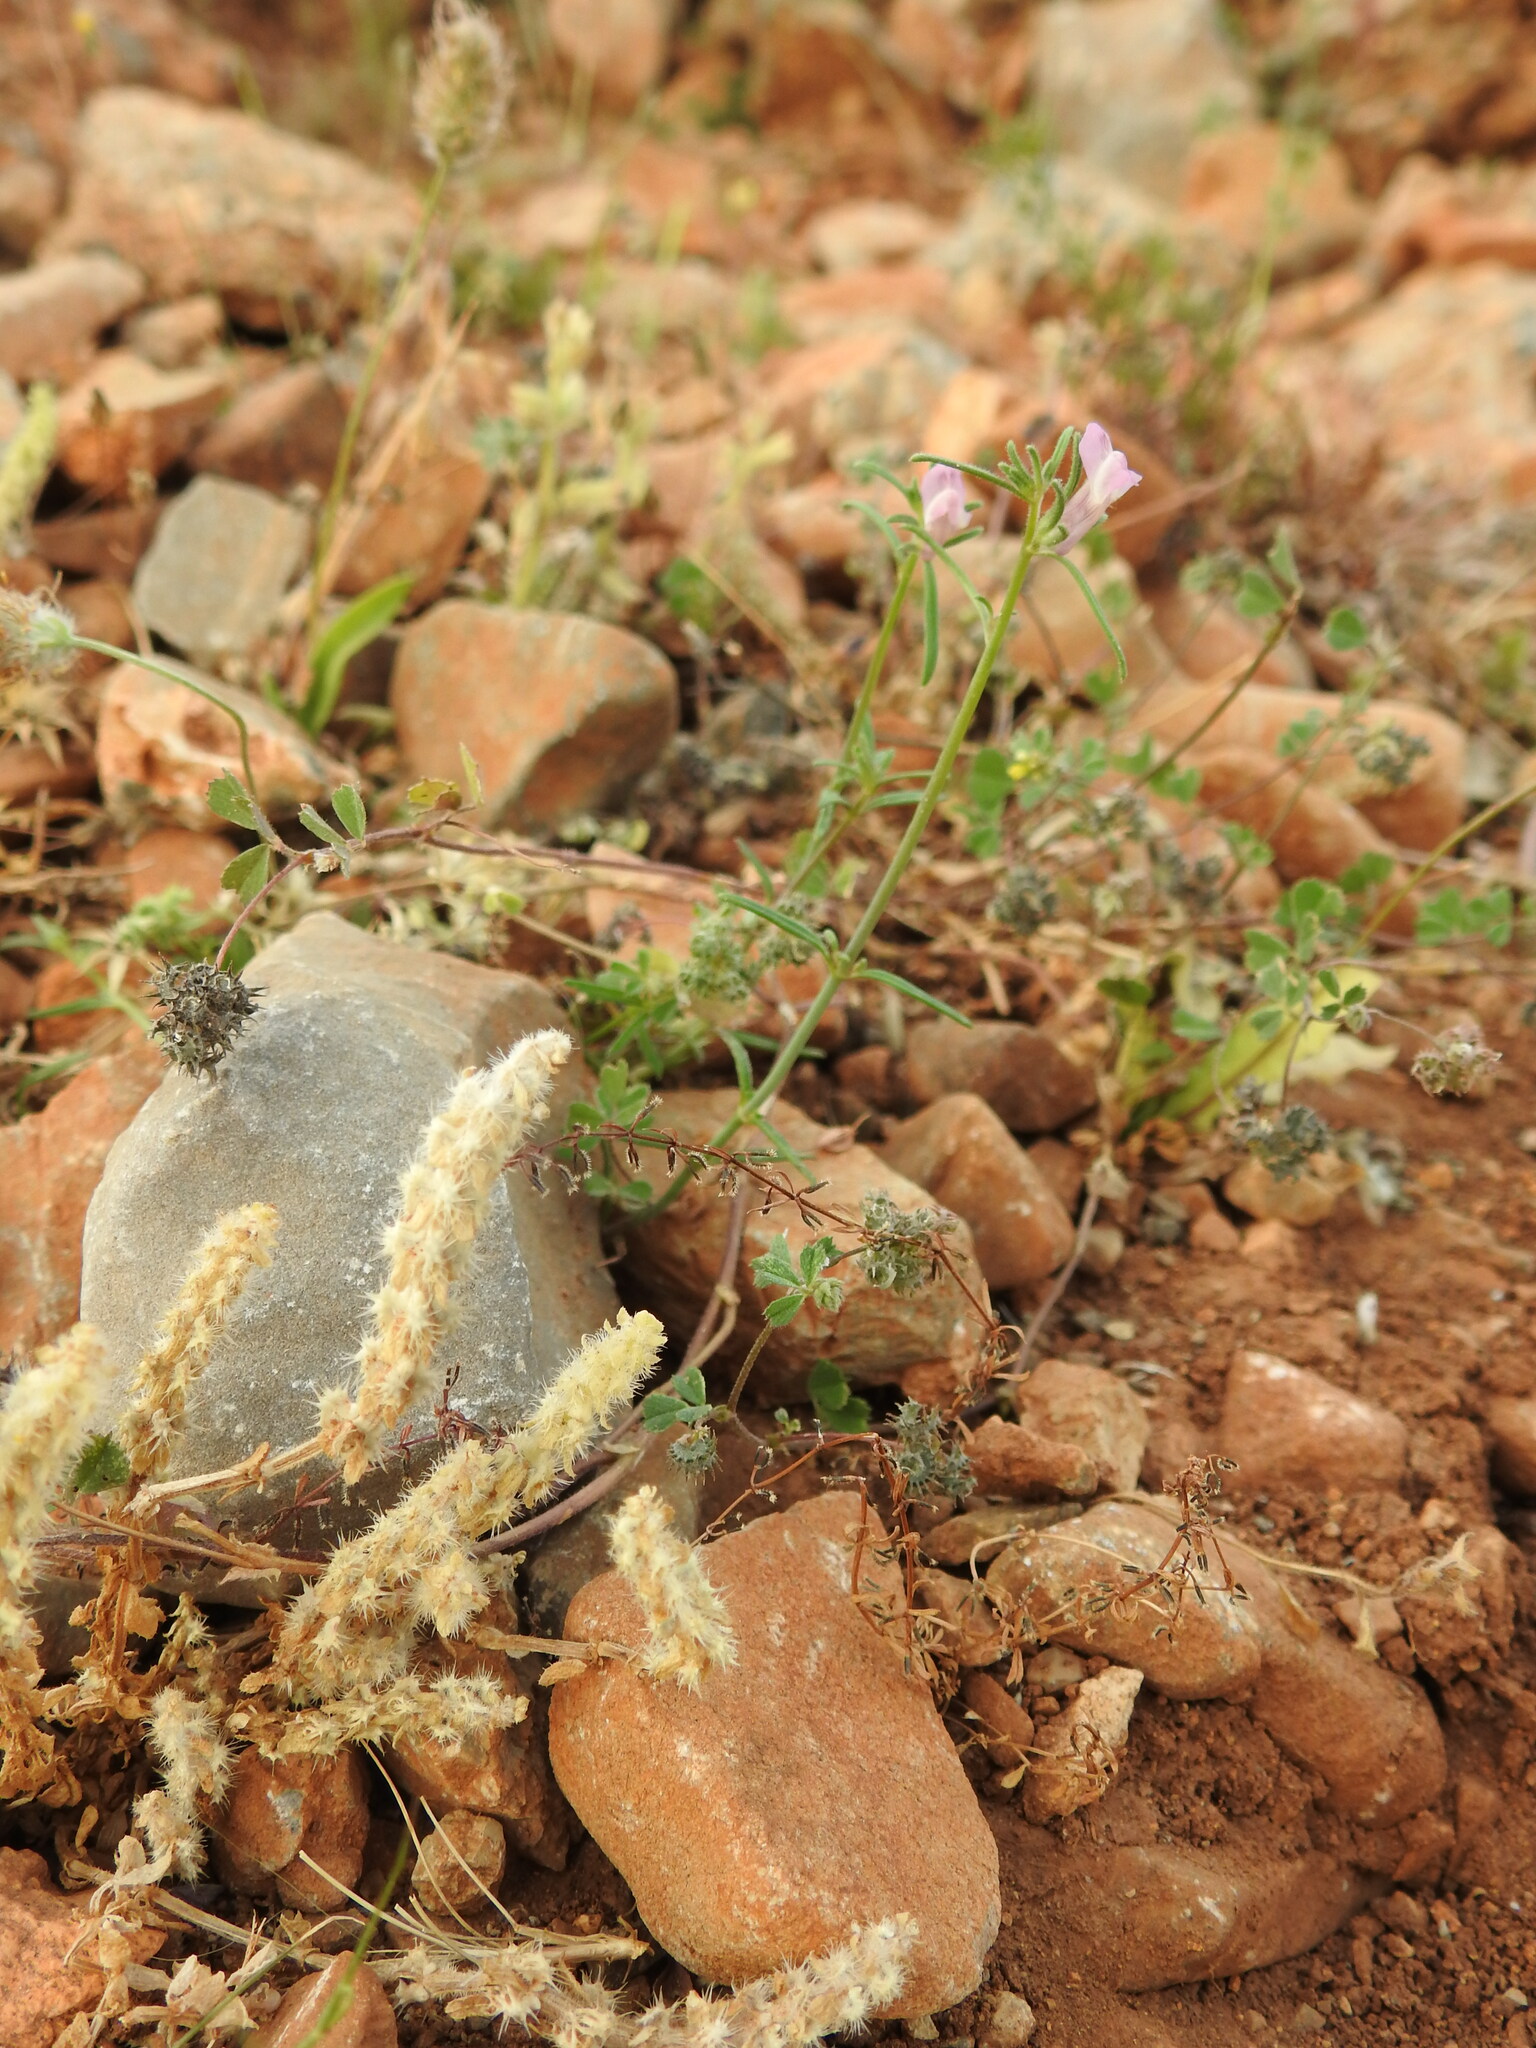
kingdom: Plantae
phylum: Tracheophyta
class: Magnoliopsida
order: Lamiales
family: Plantaginaceae
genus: Misopates
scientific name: Misopates orontium
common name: Weasel's-snout
